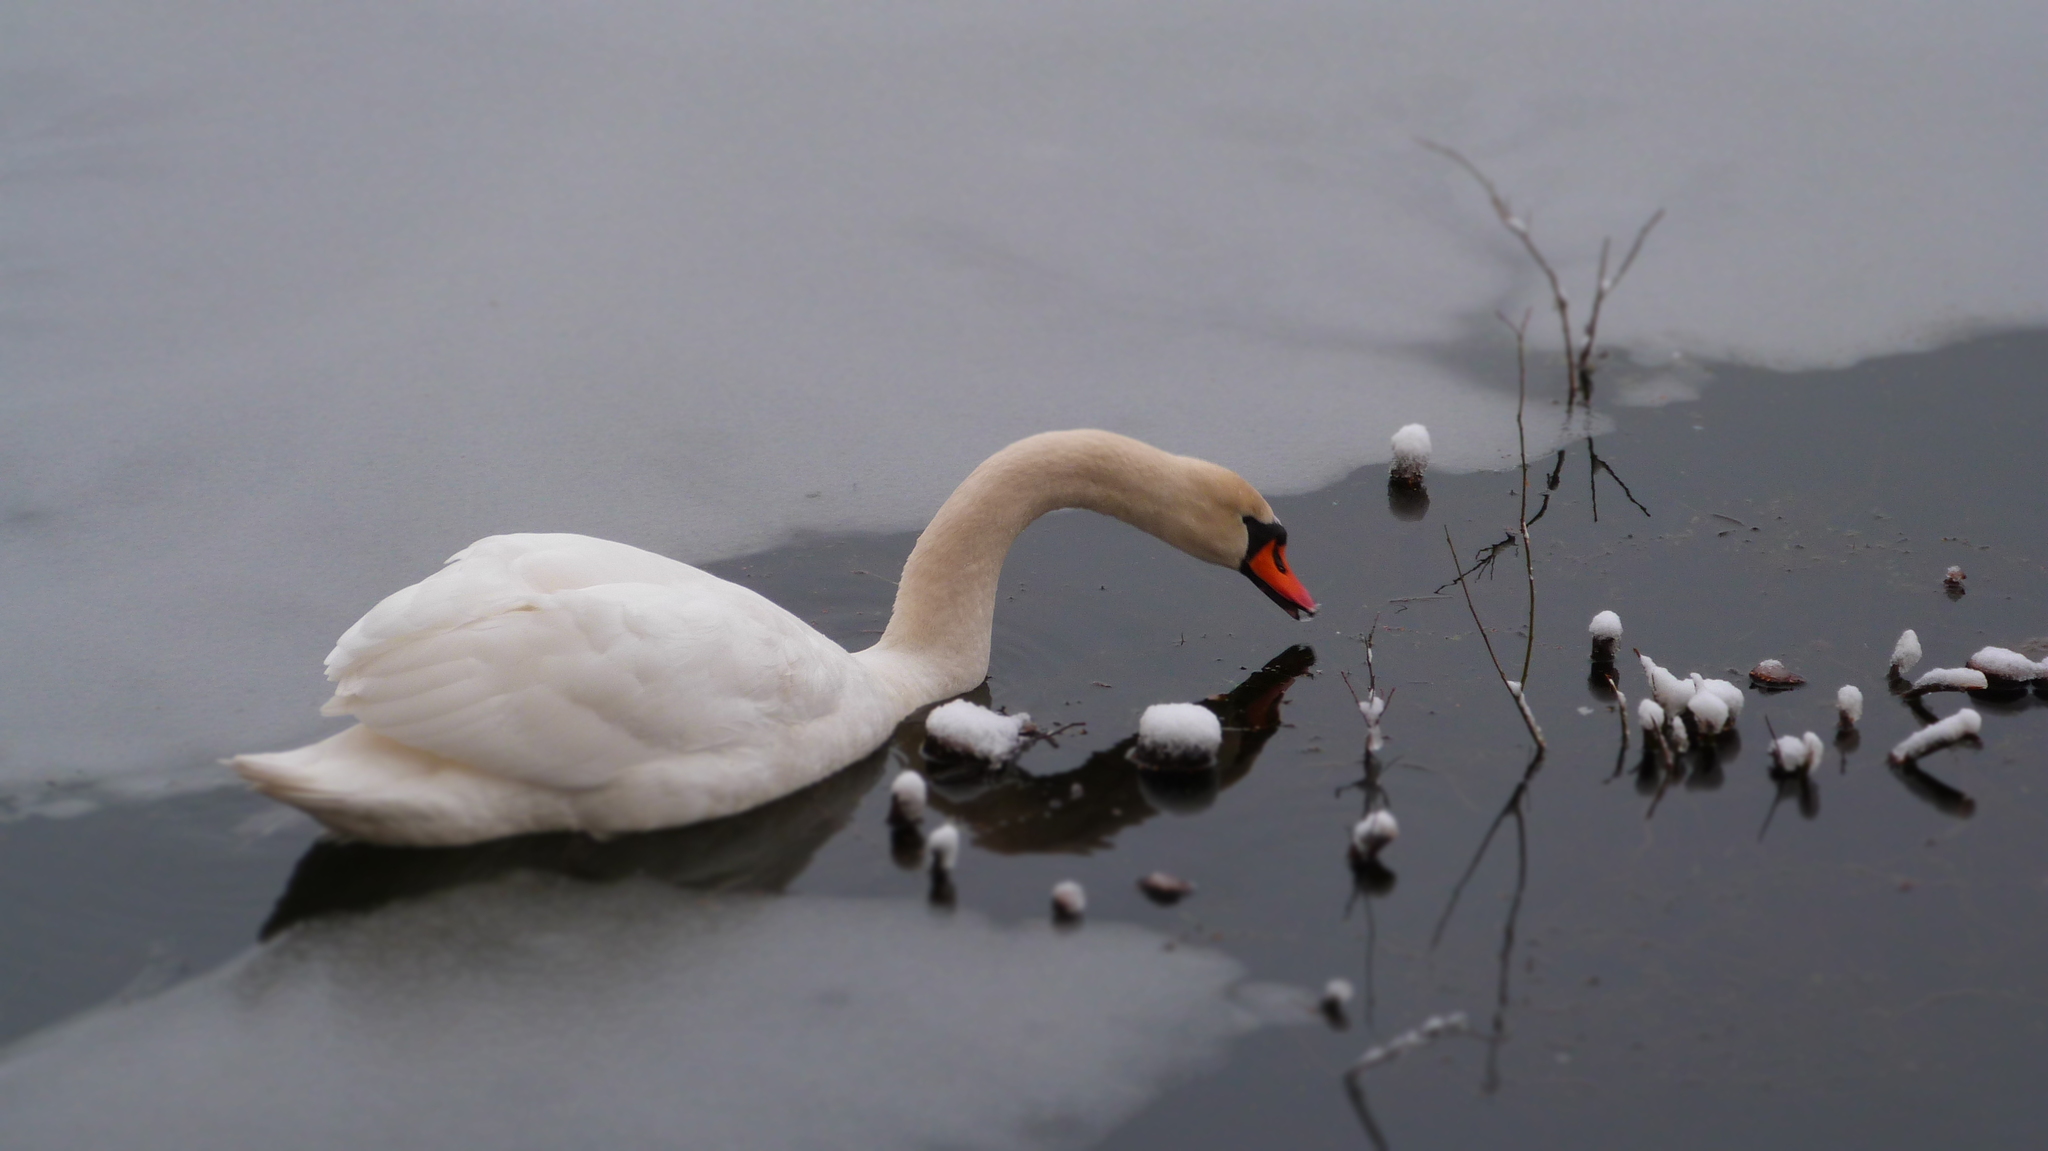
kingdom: Animalia
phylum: Chordata
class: Aves
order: Anseriformes
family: Anatidae
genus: Cygnus
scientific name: Cygnus olor
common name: Mute swan
